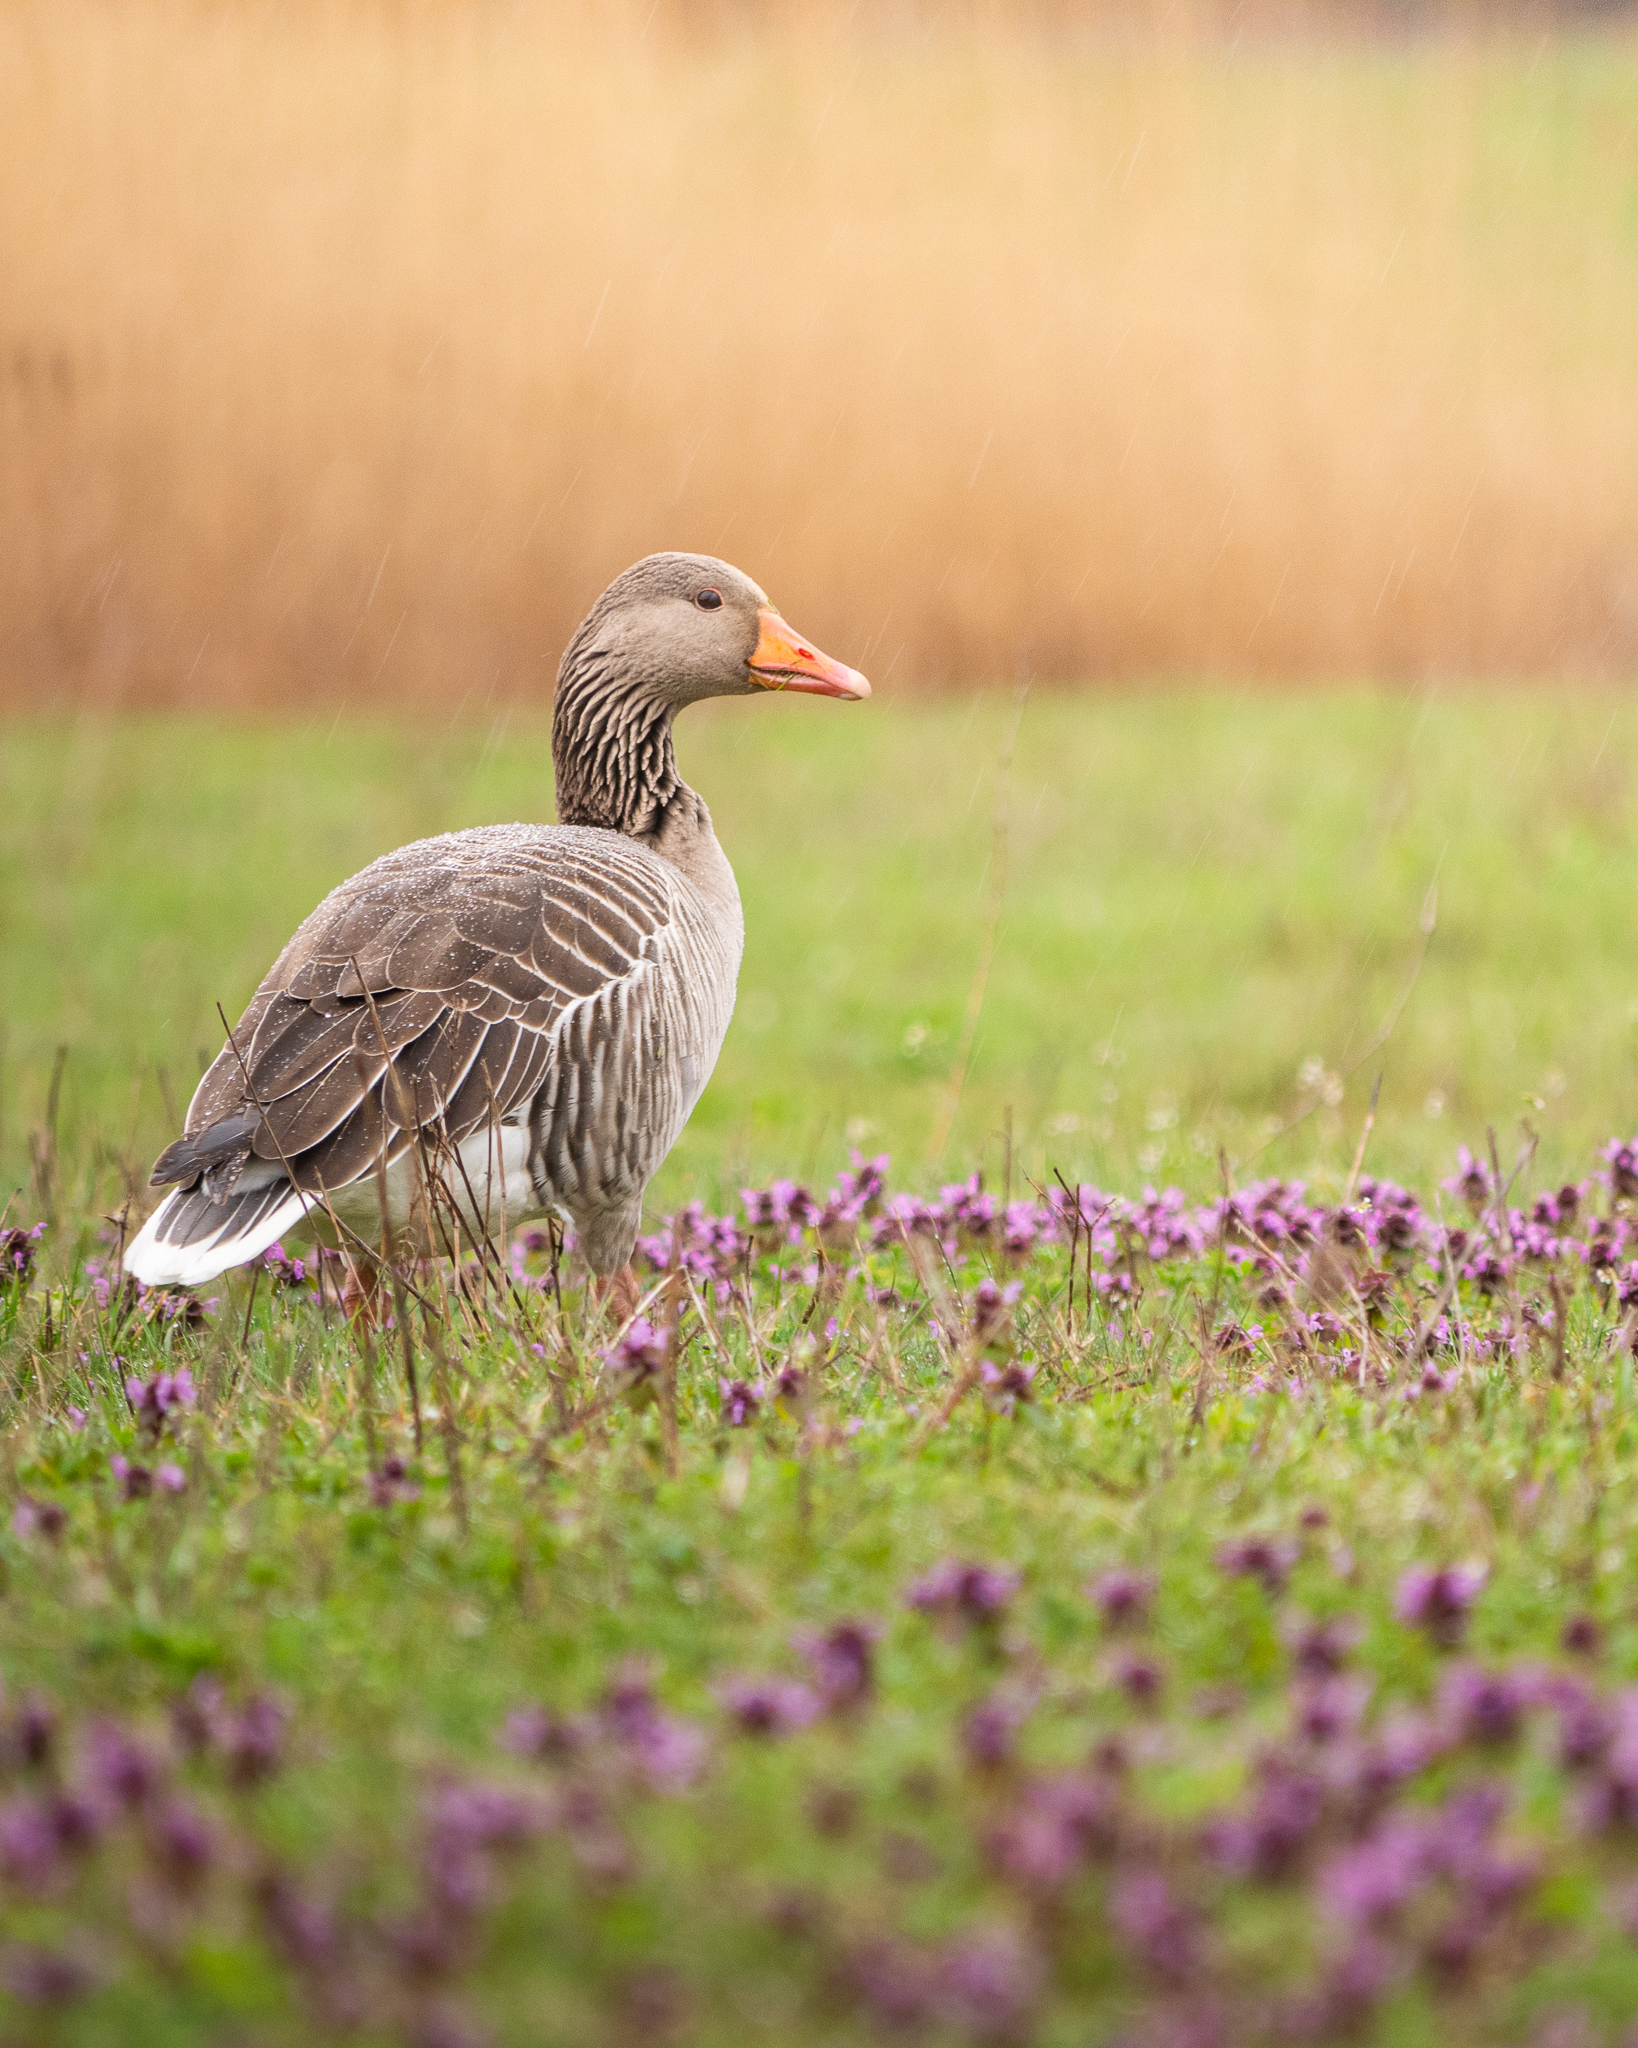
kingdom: Animalia
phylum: Chordata
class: Aves
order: Anseriformes
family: Anatidae
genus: Anser
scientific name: Anser anser
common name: Greylag goose
